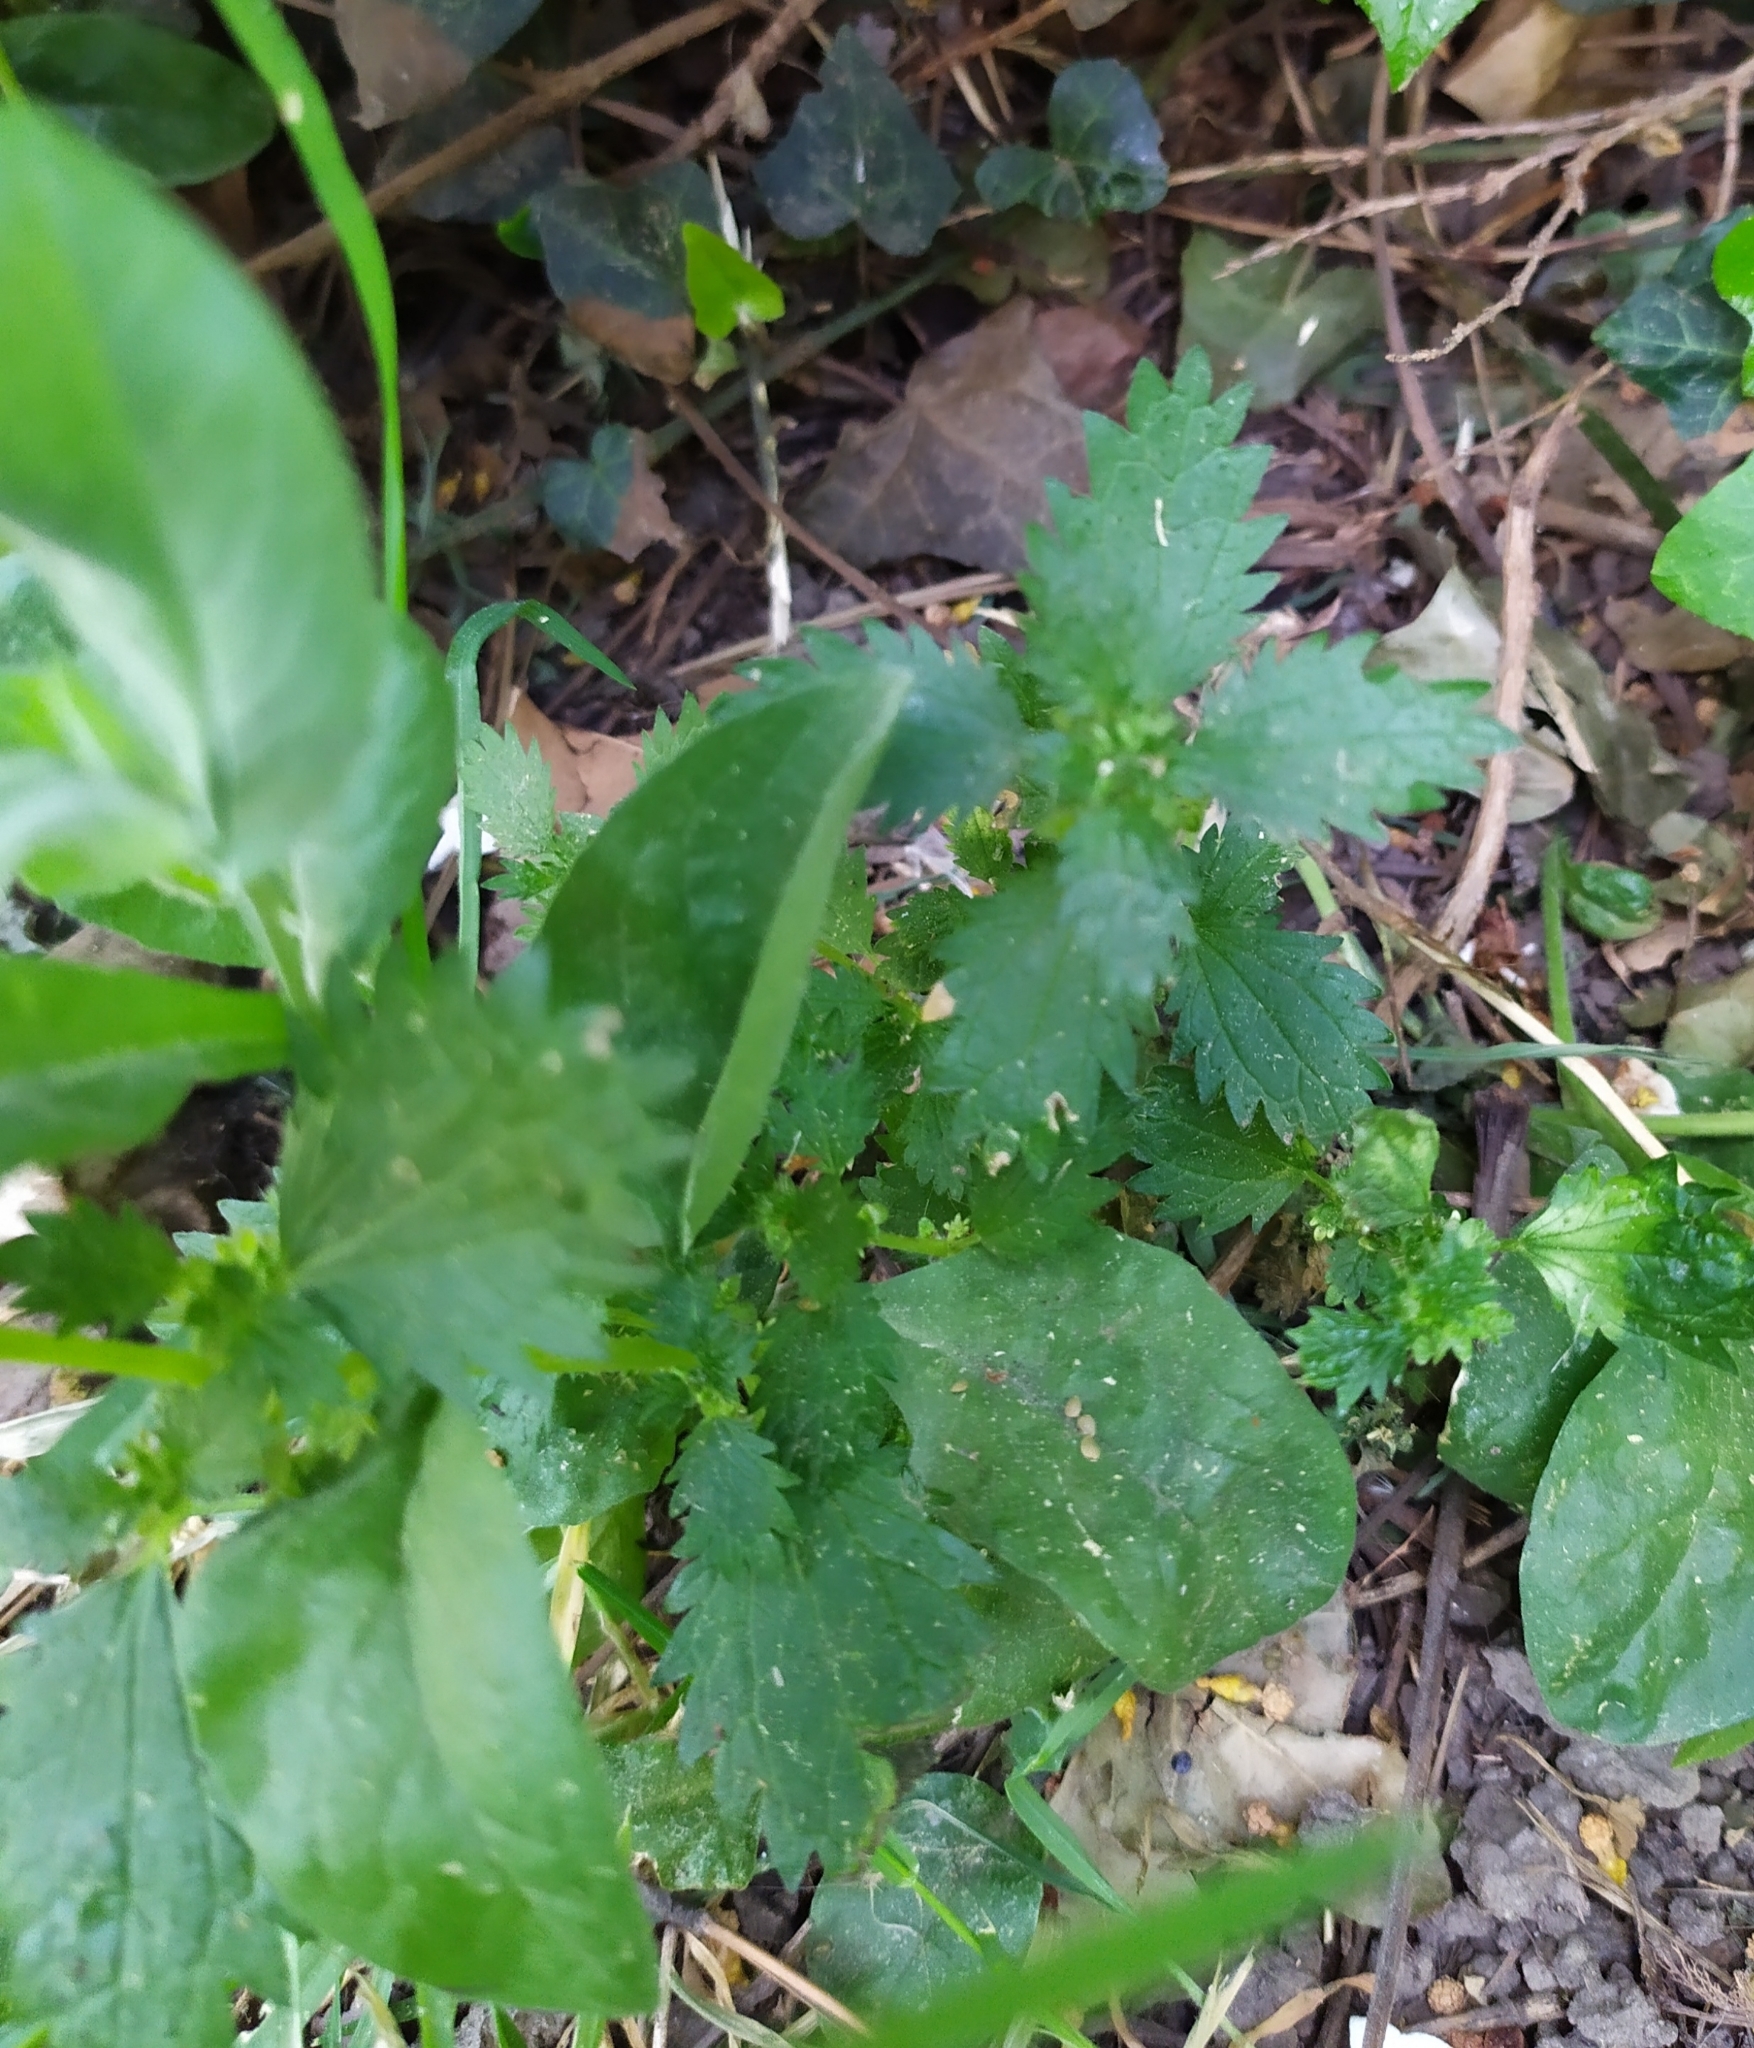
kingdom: Plantae
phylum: Tracheophyta
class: Magnoliopsida
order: Rosales
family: Urticaceae
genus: Urtica
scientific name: Urtica urens
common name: Dwarf nettle
